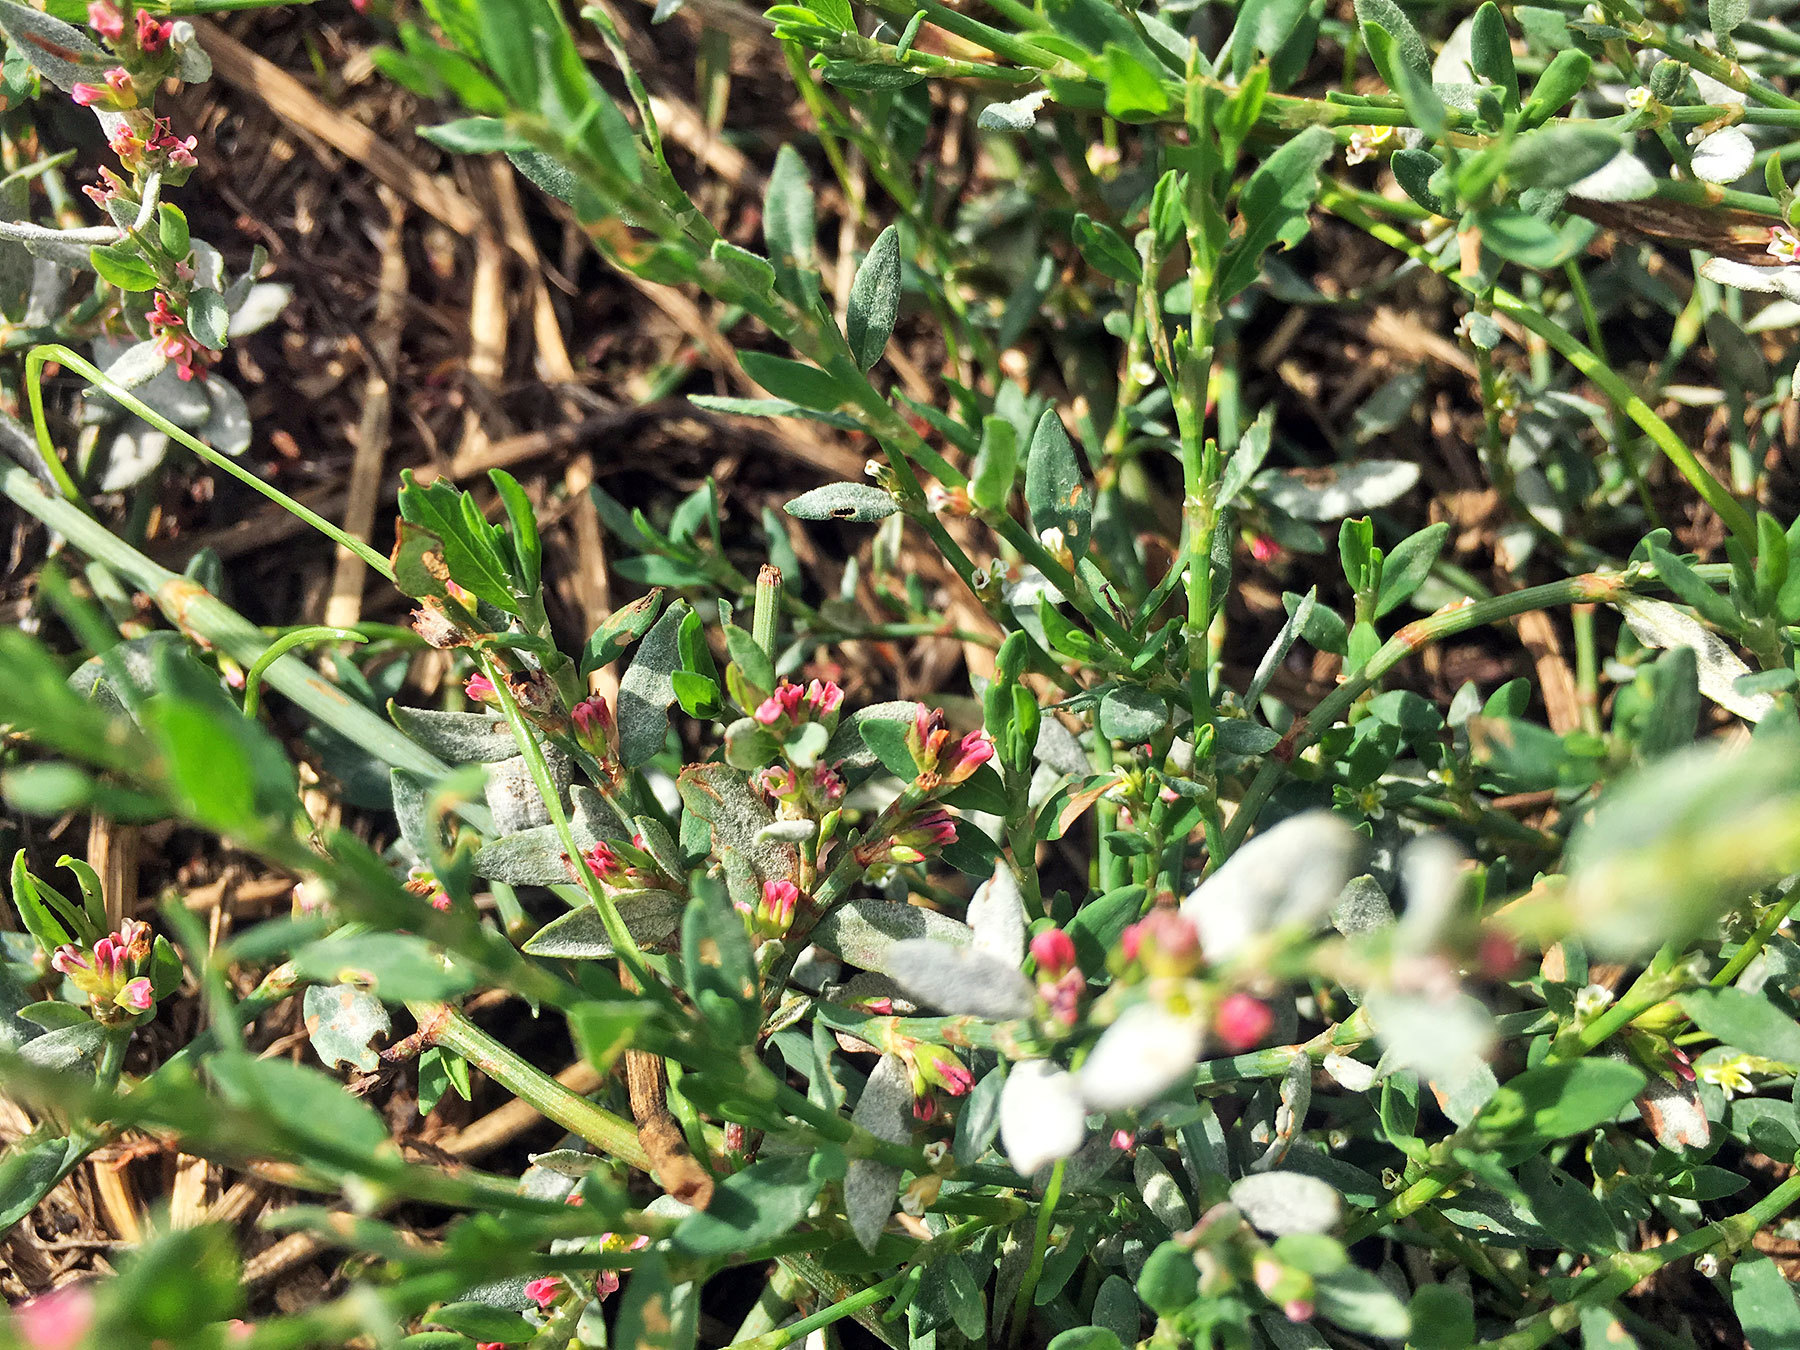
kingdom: Plantae
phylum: Tracheophyta
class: Magnoliopsida
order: Caryophyllales
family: Polygonaceae
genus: Polygonum
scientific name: Polygonum aviculare
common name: Prostrate knotweed
